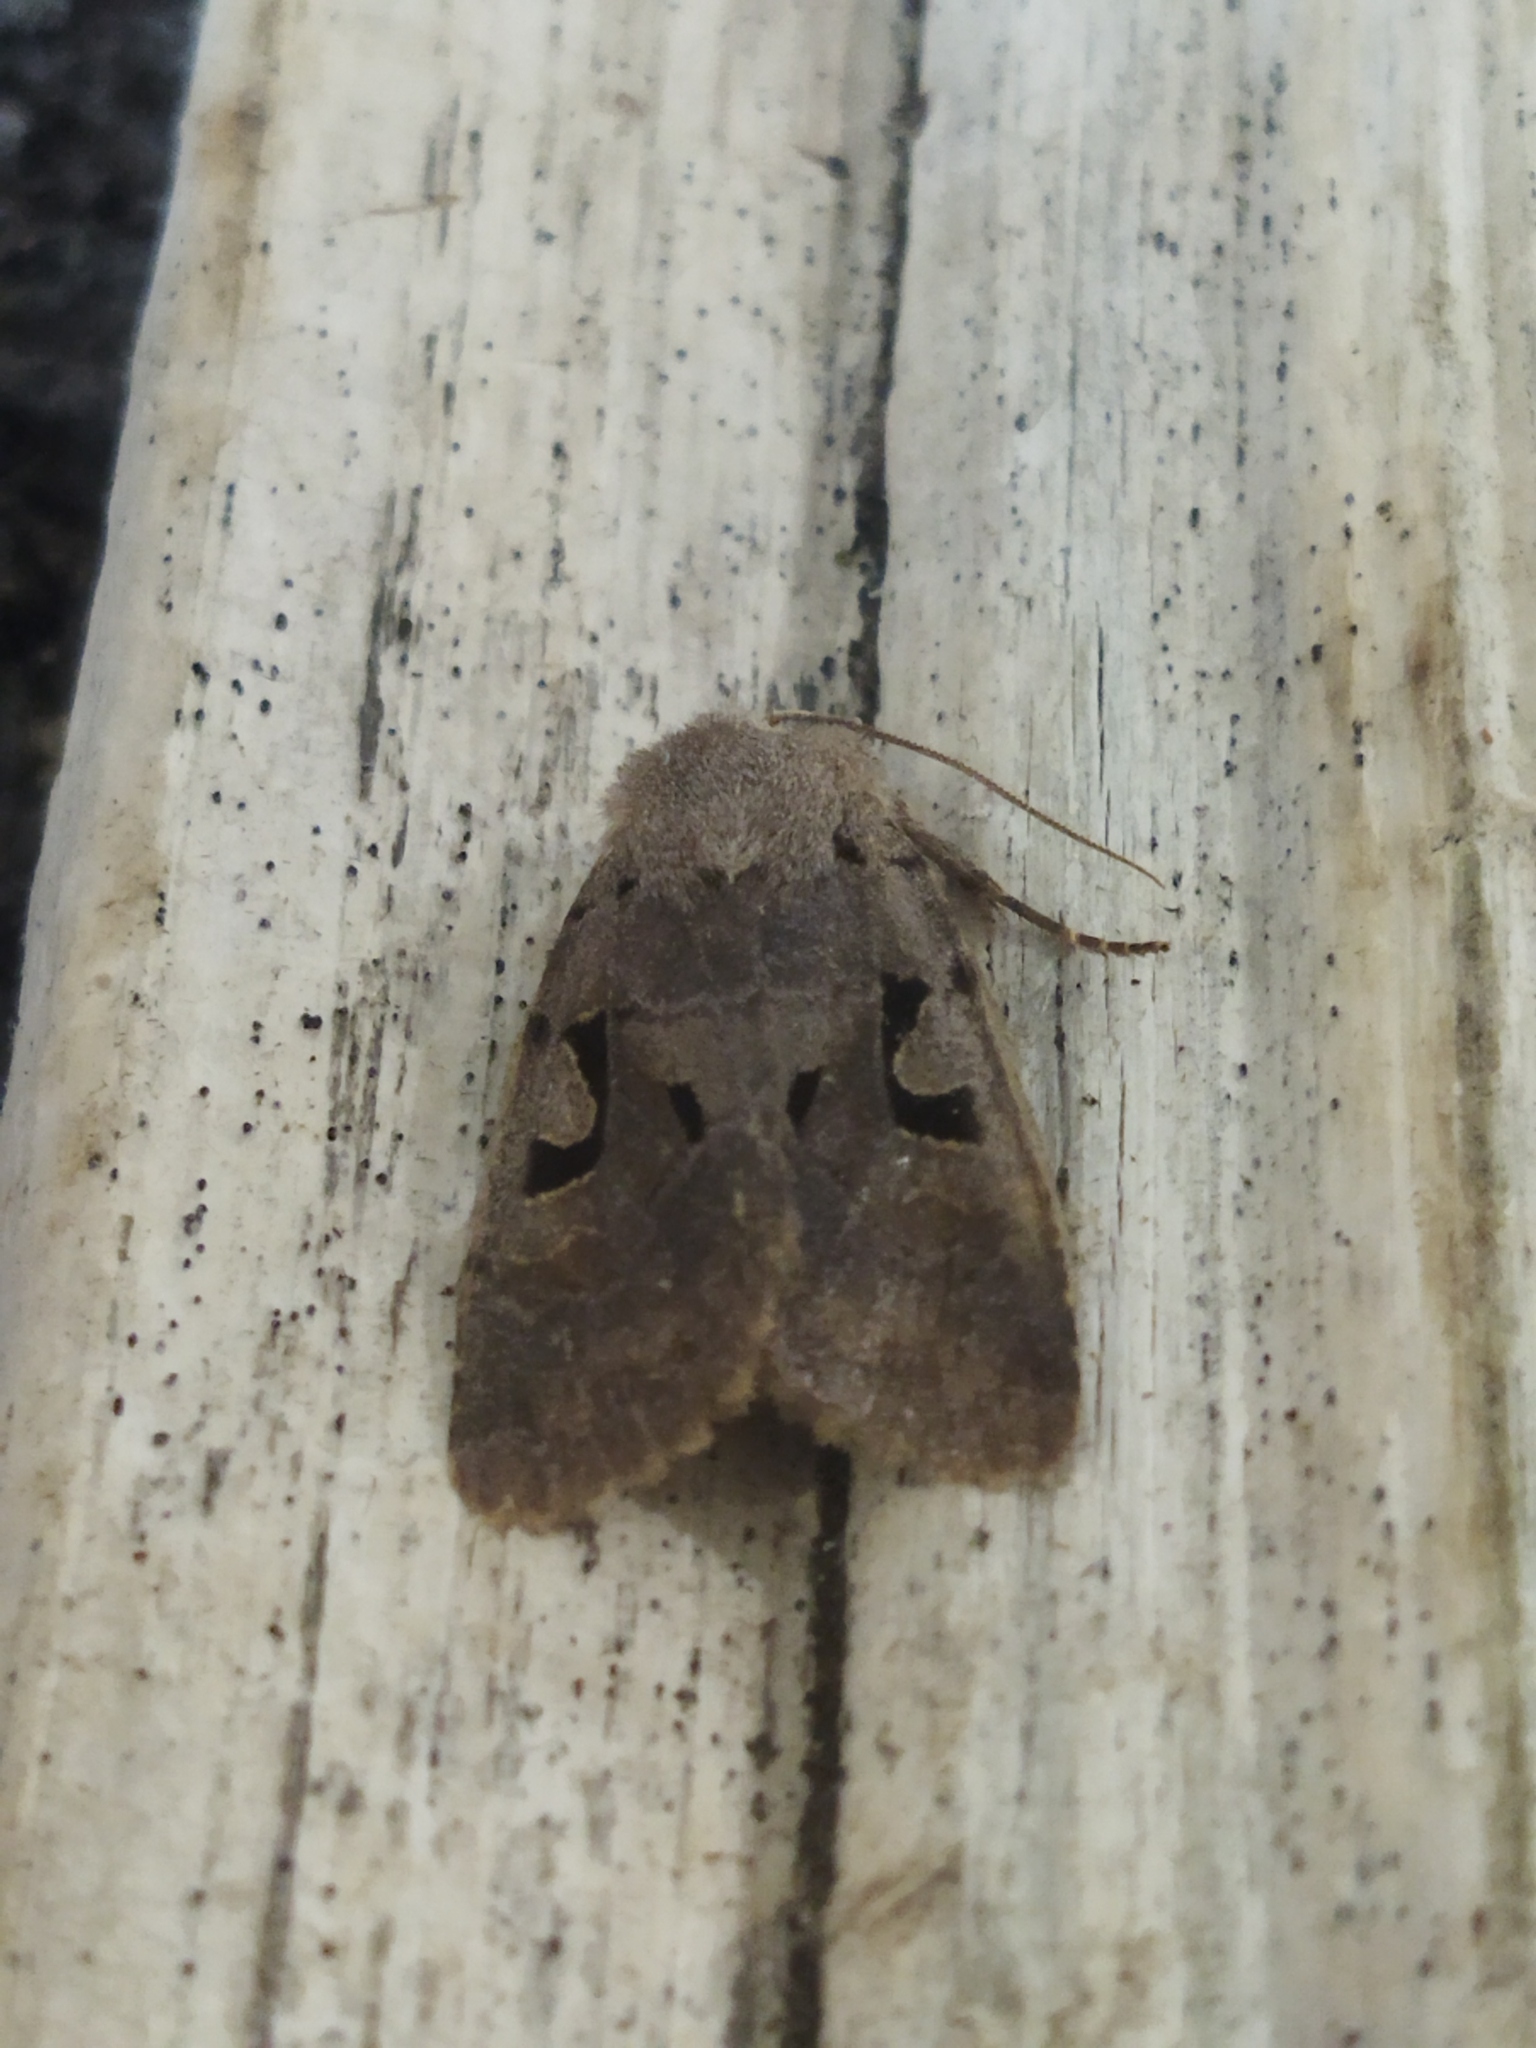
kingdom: Animalia
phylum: Arthropoda
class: Insecta
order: Lepidoptera
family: Noctuidae
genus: Orthosia
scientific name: Orthosia gothica
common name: Hebrew character
